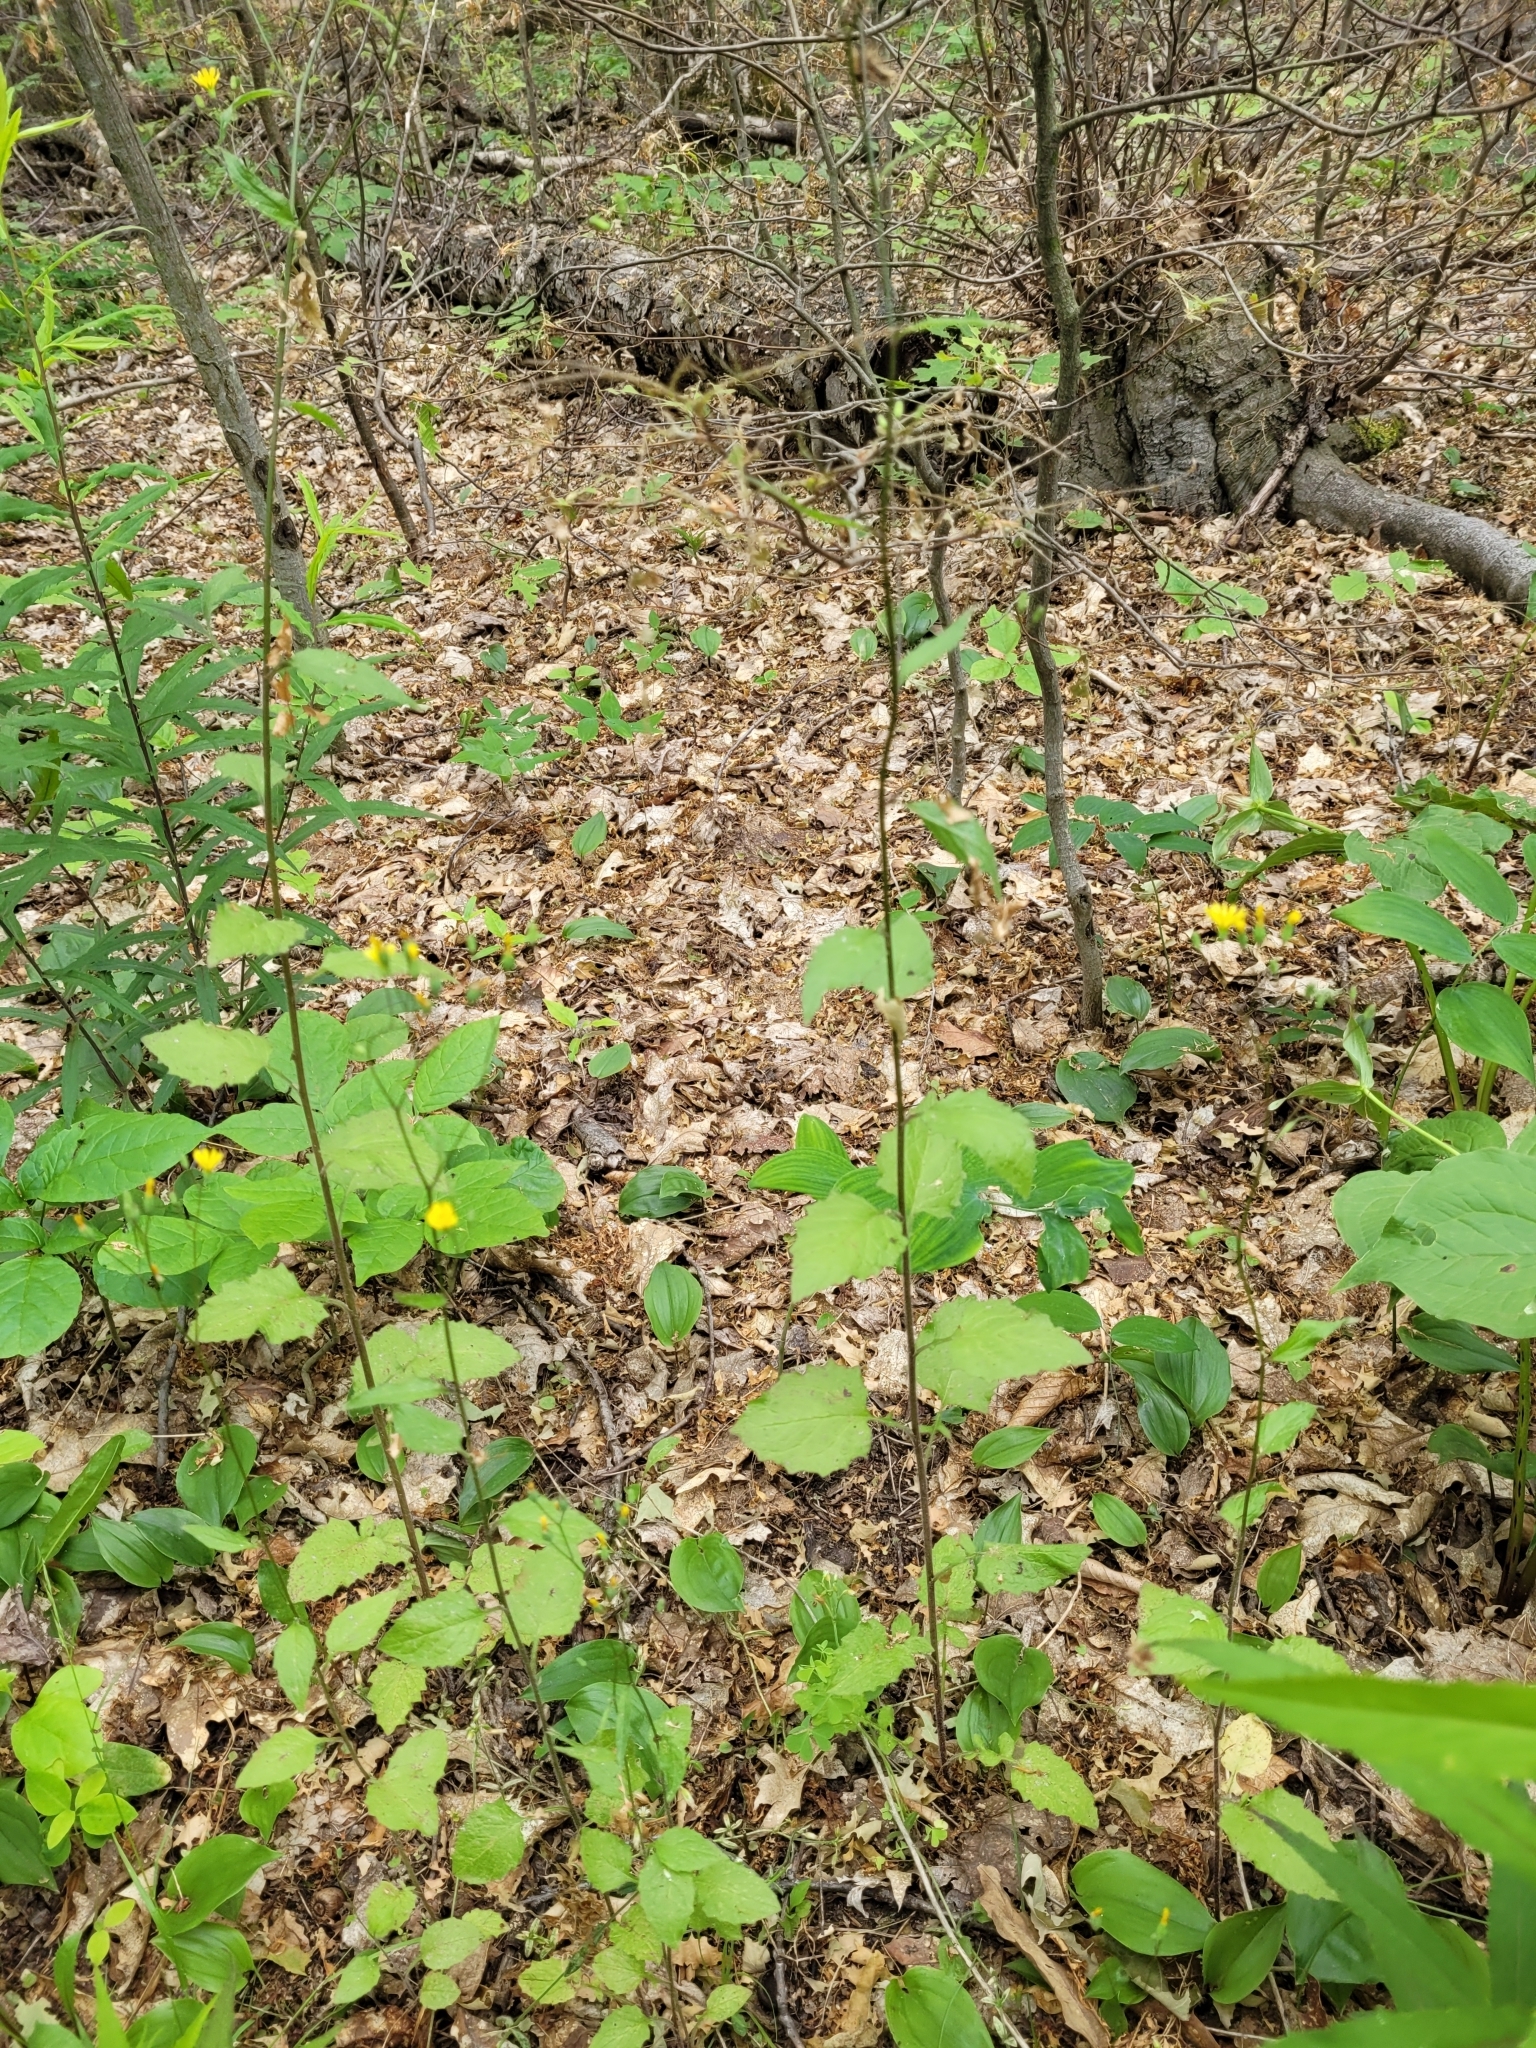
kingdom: Plantae
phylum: Tracheophyta
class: Magnoliopsida
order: Asterales
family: Asteraceae
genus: Lapsana
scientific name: Lapsana communis
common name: Nipplewort
